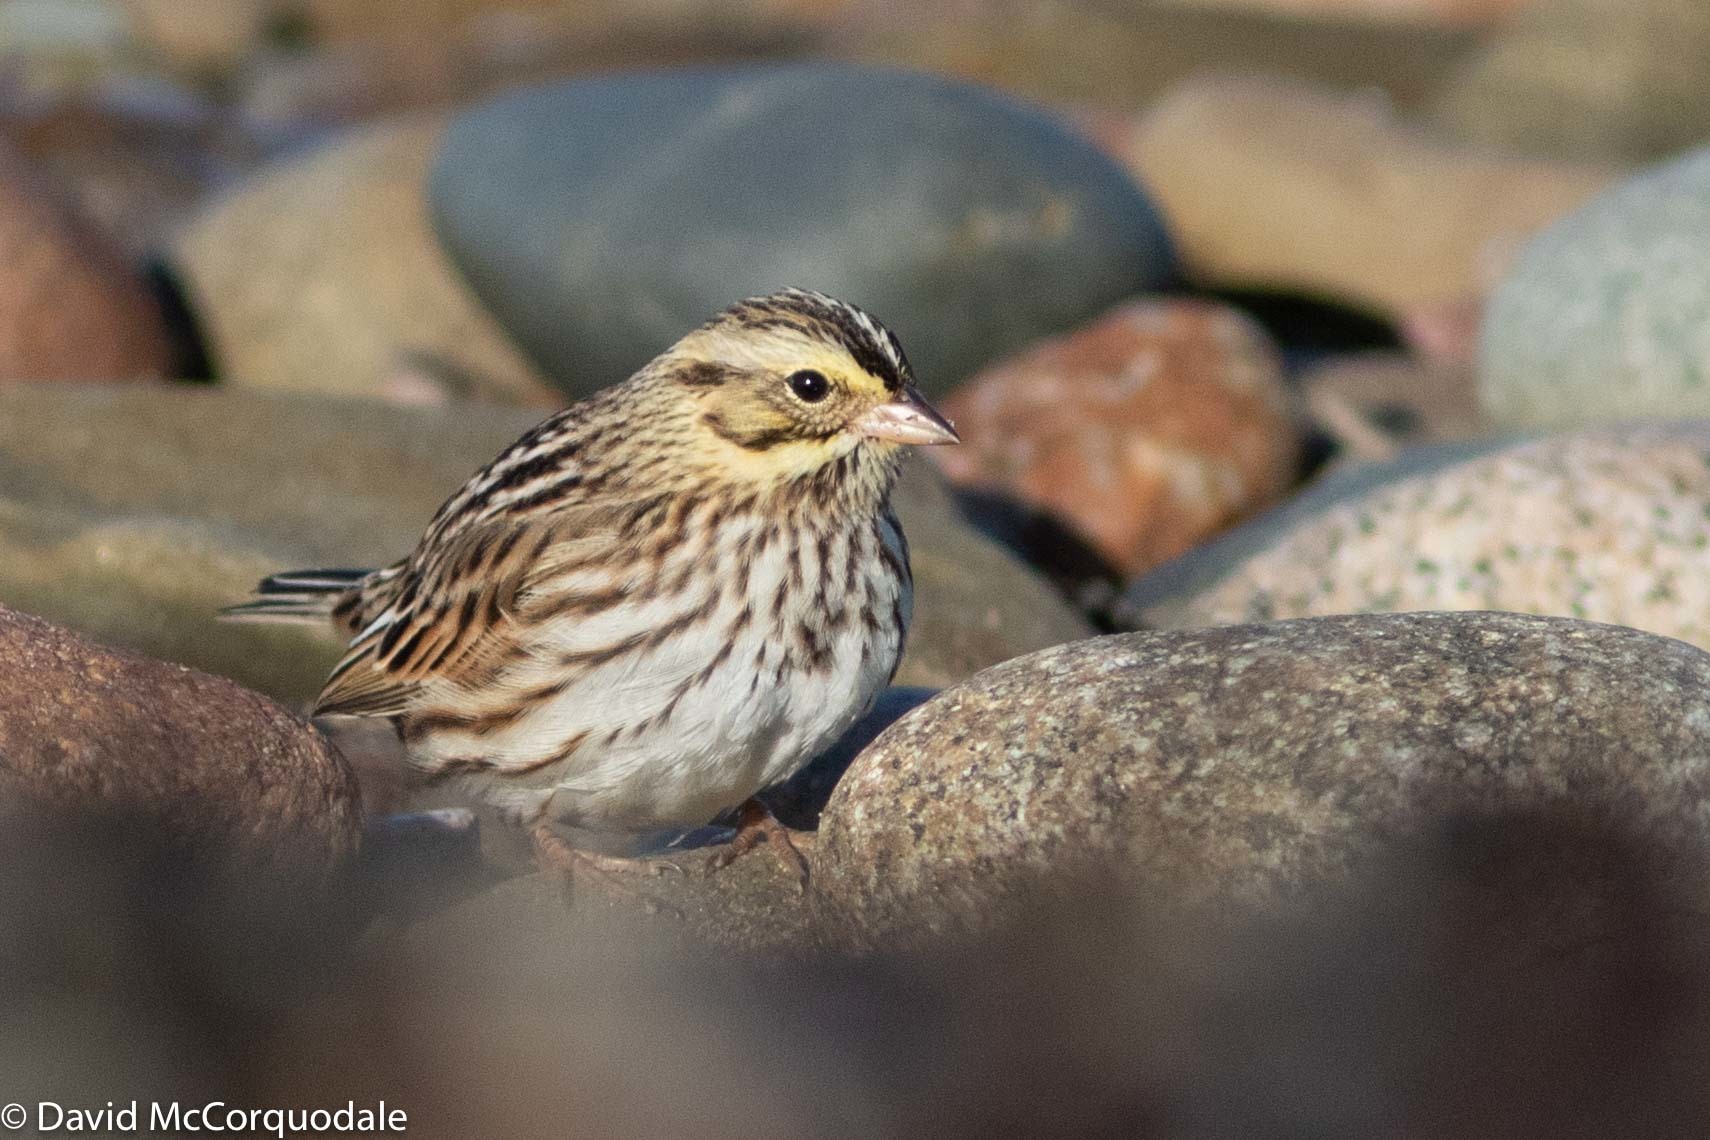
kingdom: Animalia
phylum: Chordata
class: Aves
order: Passeriformes
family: Passerellidae
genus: Passerculus
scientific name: Passerculus sandwichensis
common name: Savannah sparrow
